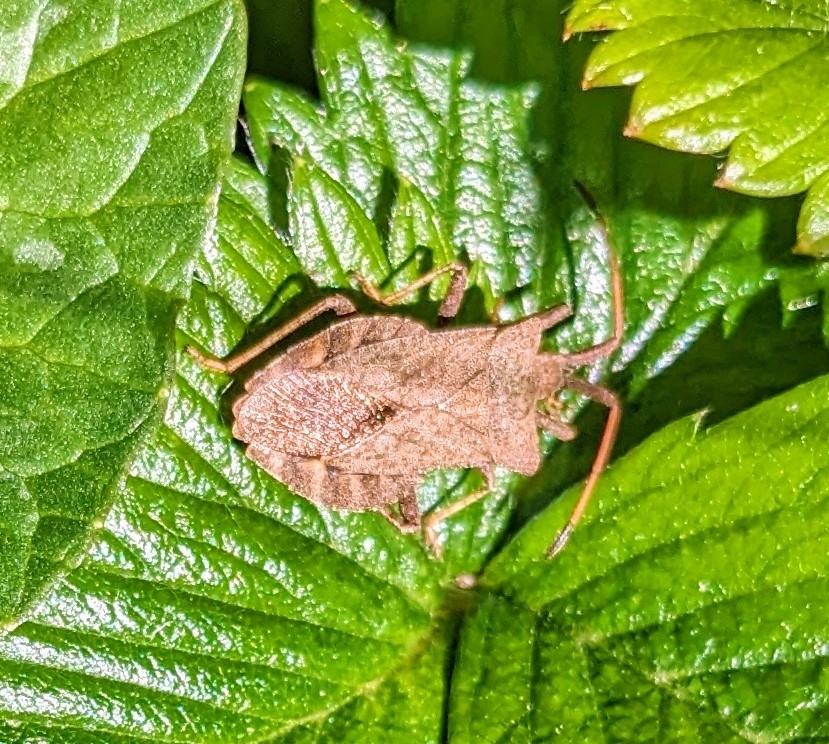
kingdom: Animalia
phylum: Arthropoda
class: Insecta
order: Hemiptera
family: Coreidae
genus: Coreus
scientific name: Coreus marginatus
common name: Dock bug
